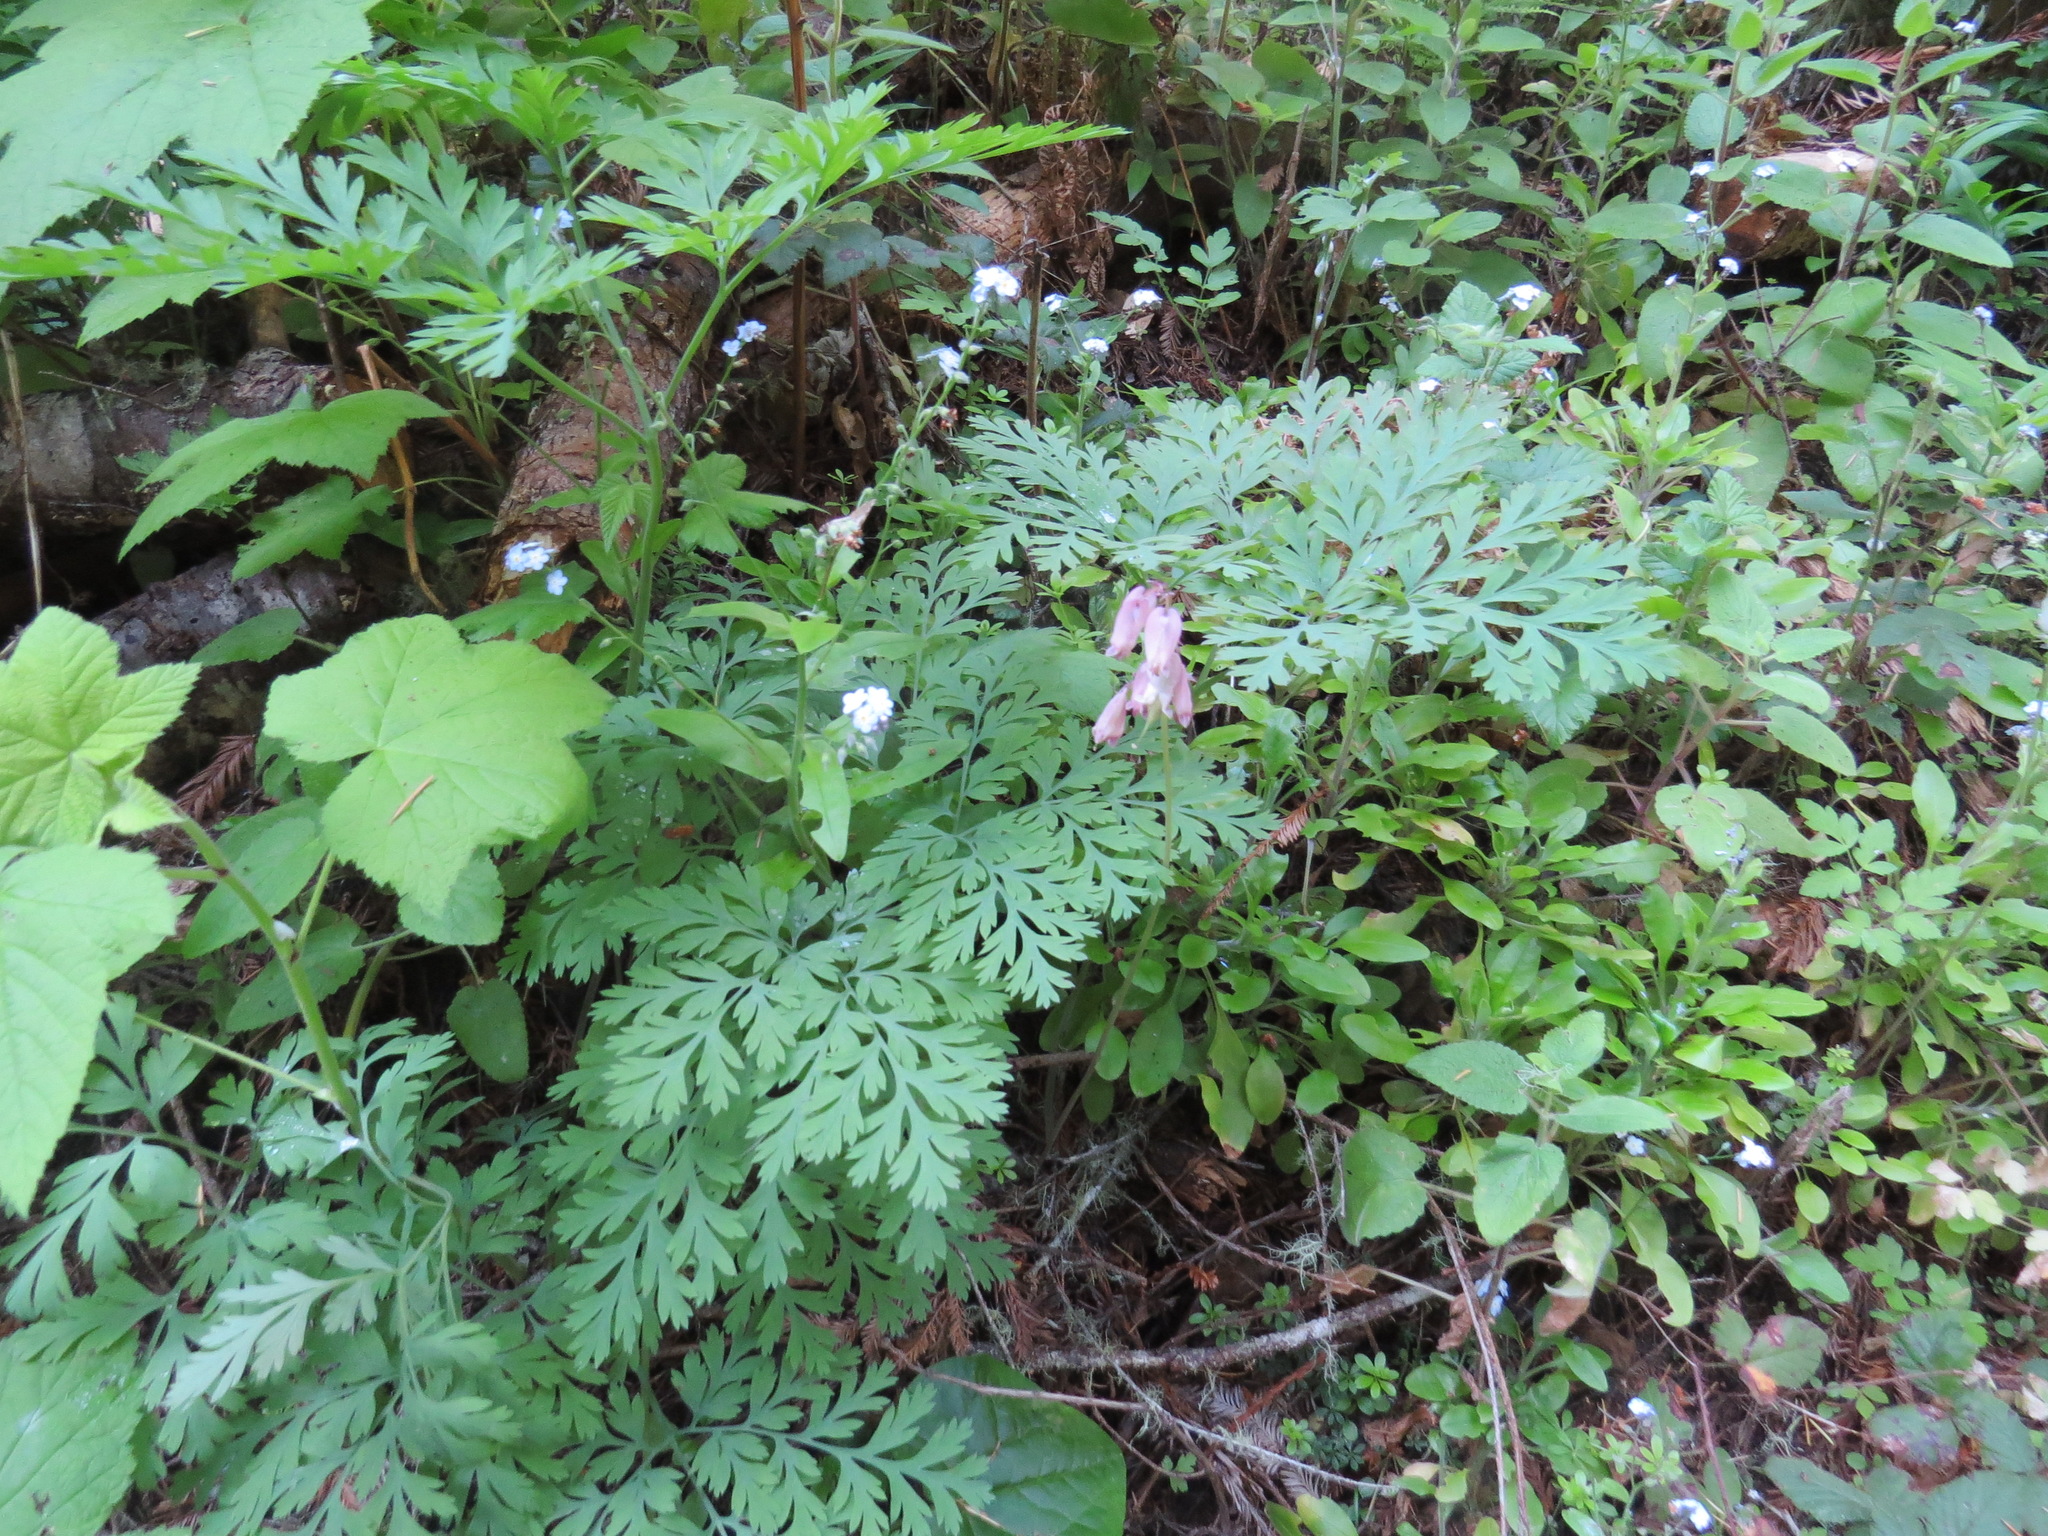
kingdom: Plantae
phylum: Tracheophyta
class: Magnoliopsida
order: Ranunculales
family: Papaveraceae
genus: Dicentra
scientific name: Dicentra formosa
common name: Bleeding-heart
